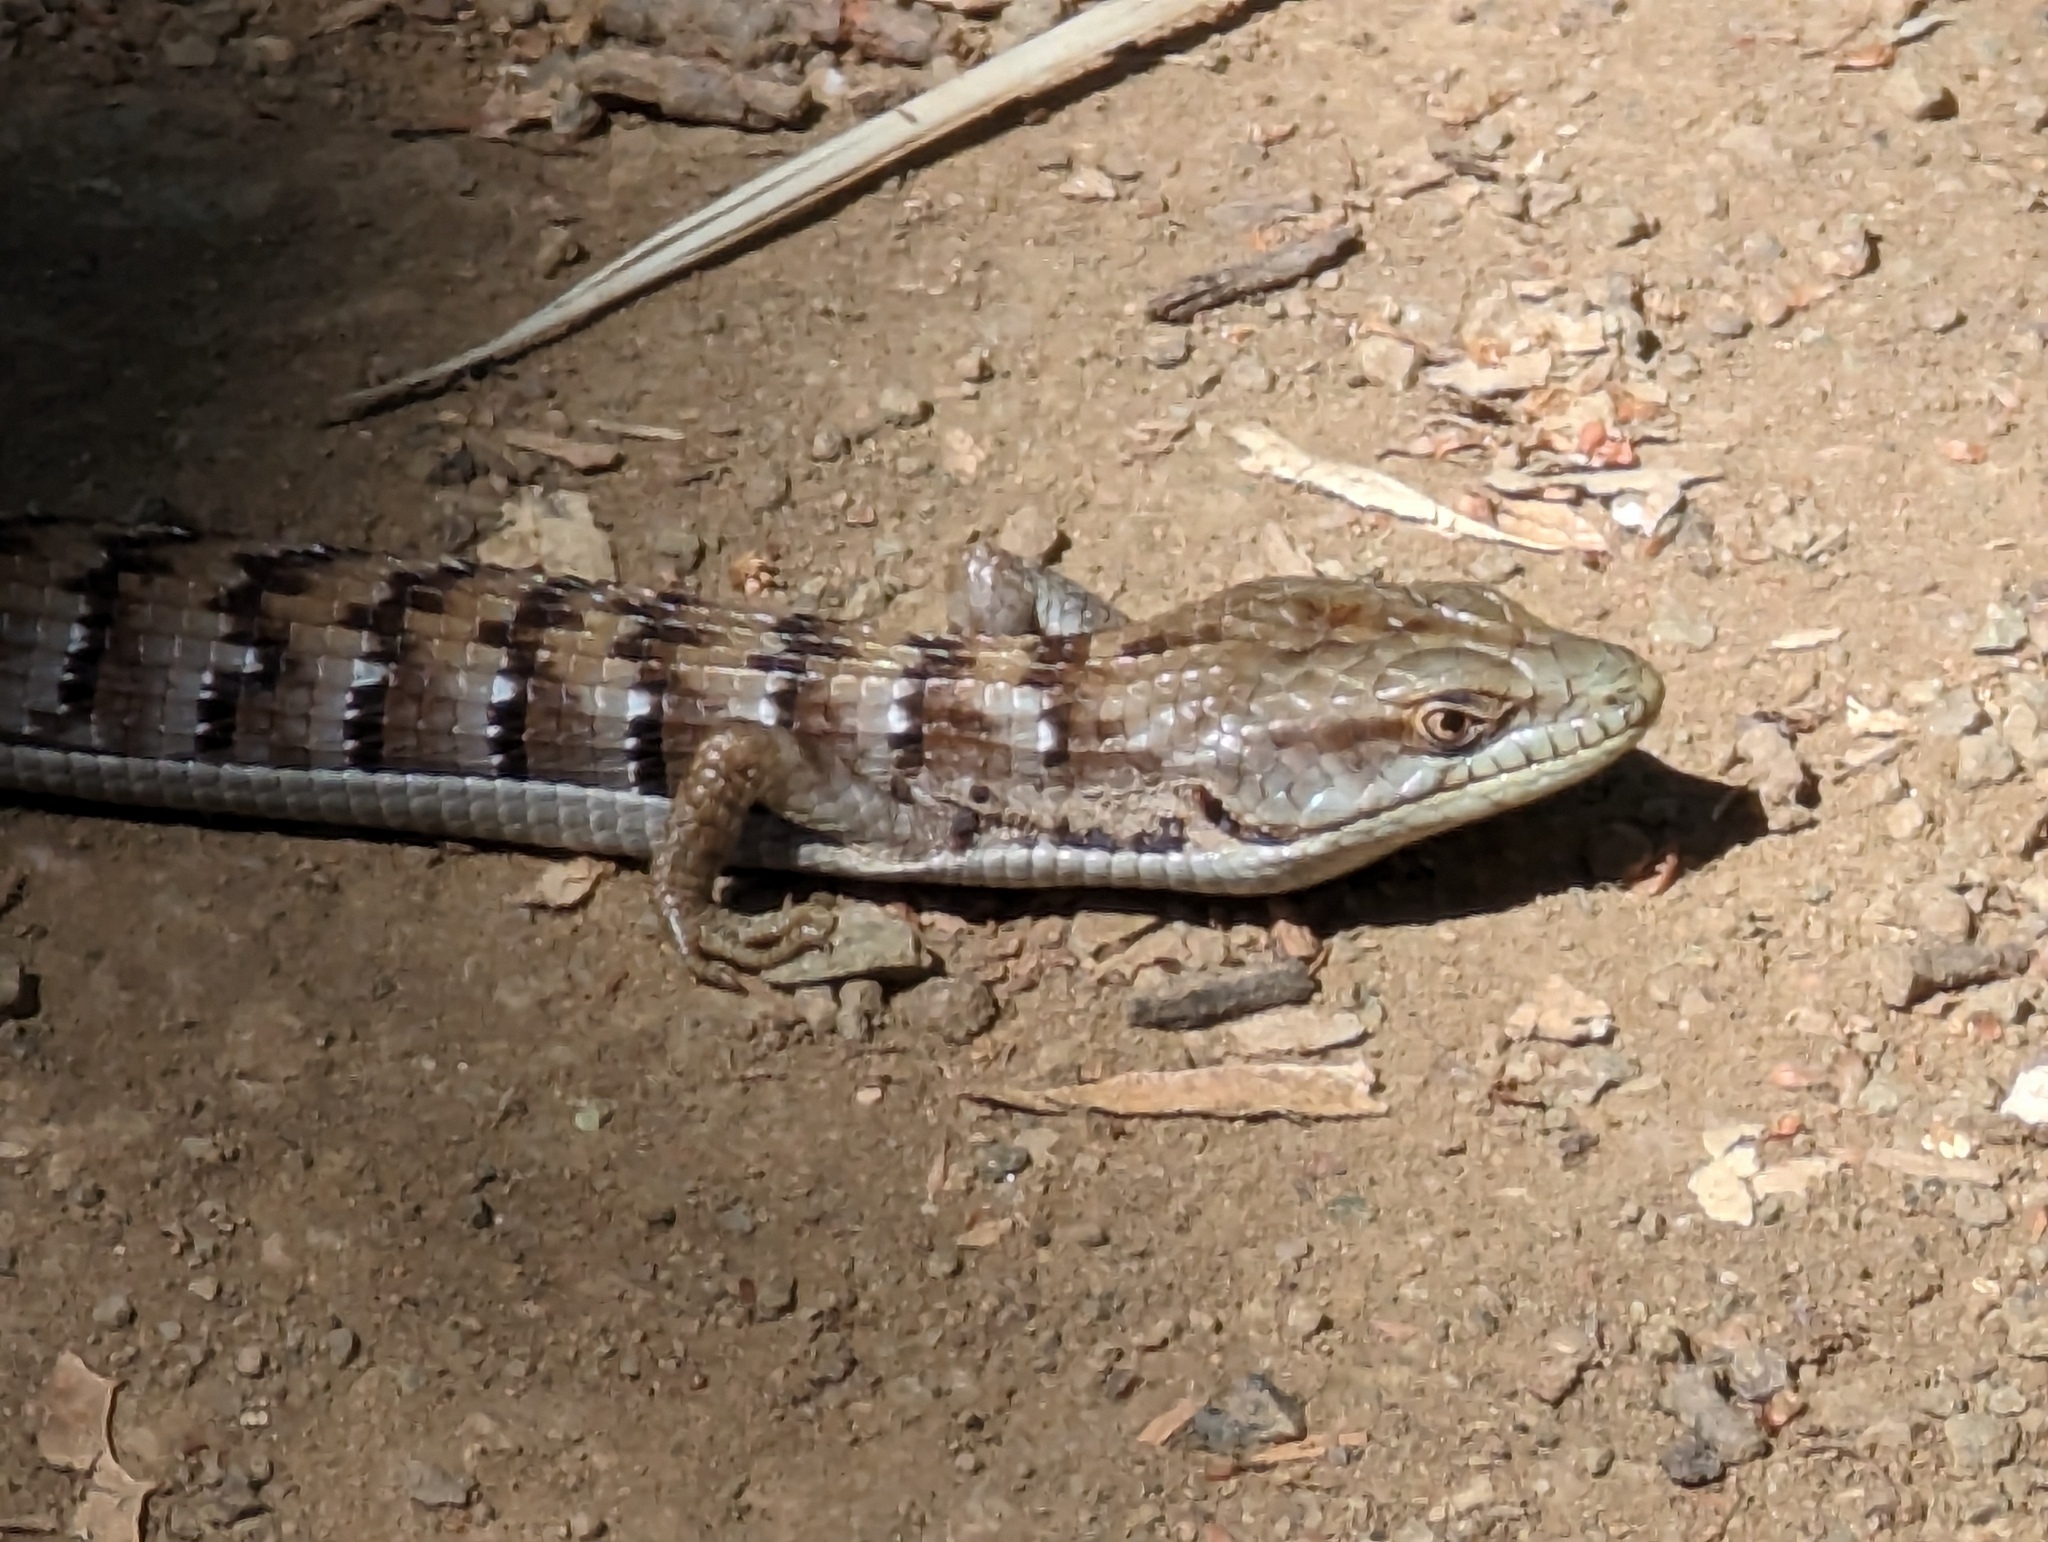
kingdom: Animalia
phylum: Chordata
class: Squamata
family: Anguidae
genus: Elgaria
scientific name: Elgaria multicarinata
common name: Southern alligator lizard
